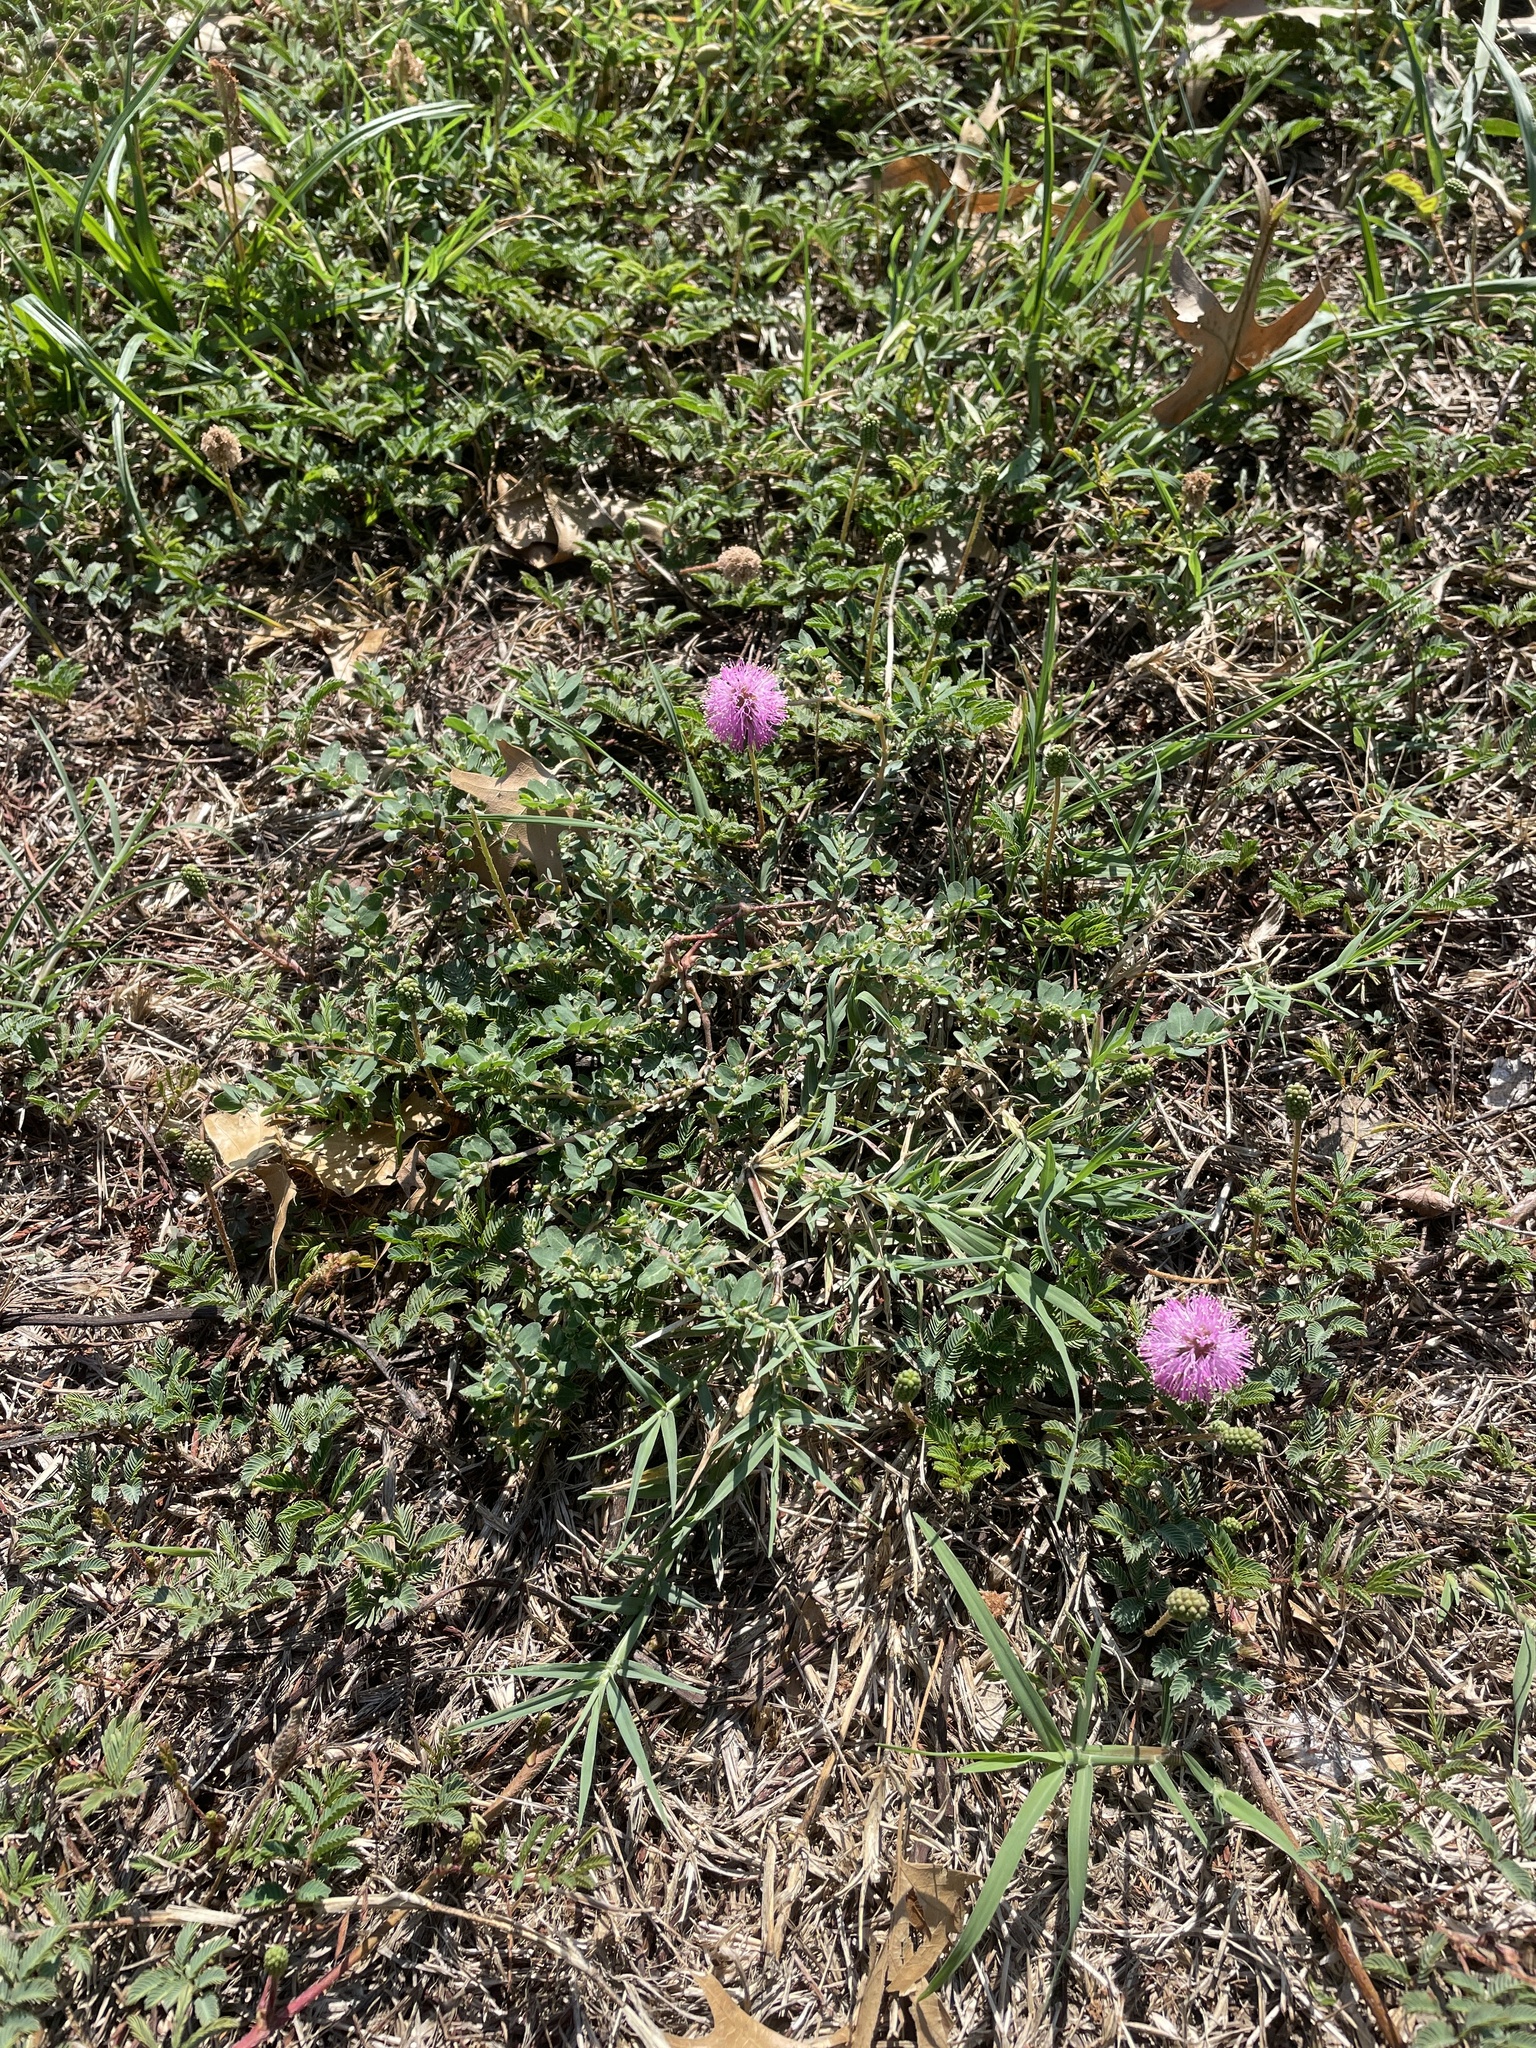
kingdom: Plantae
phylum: Tracheophyta
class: Magnoliopsida
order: Fabales
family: Fabaceae
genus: Mimosa
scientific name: Mimosa strigillosa
